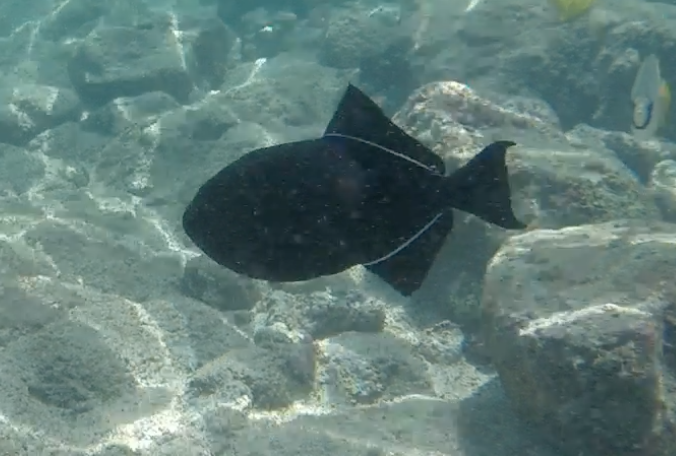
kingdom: Animalia
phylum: Chordata
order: Tetraodontiformes
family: Balistidae
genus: Melichthys
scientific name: Melichthys niger
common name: Black durgon
